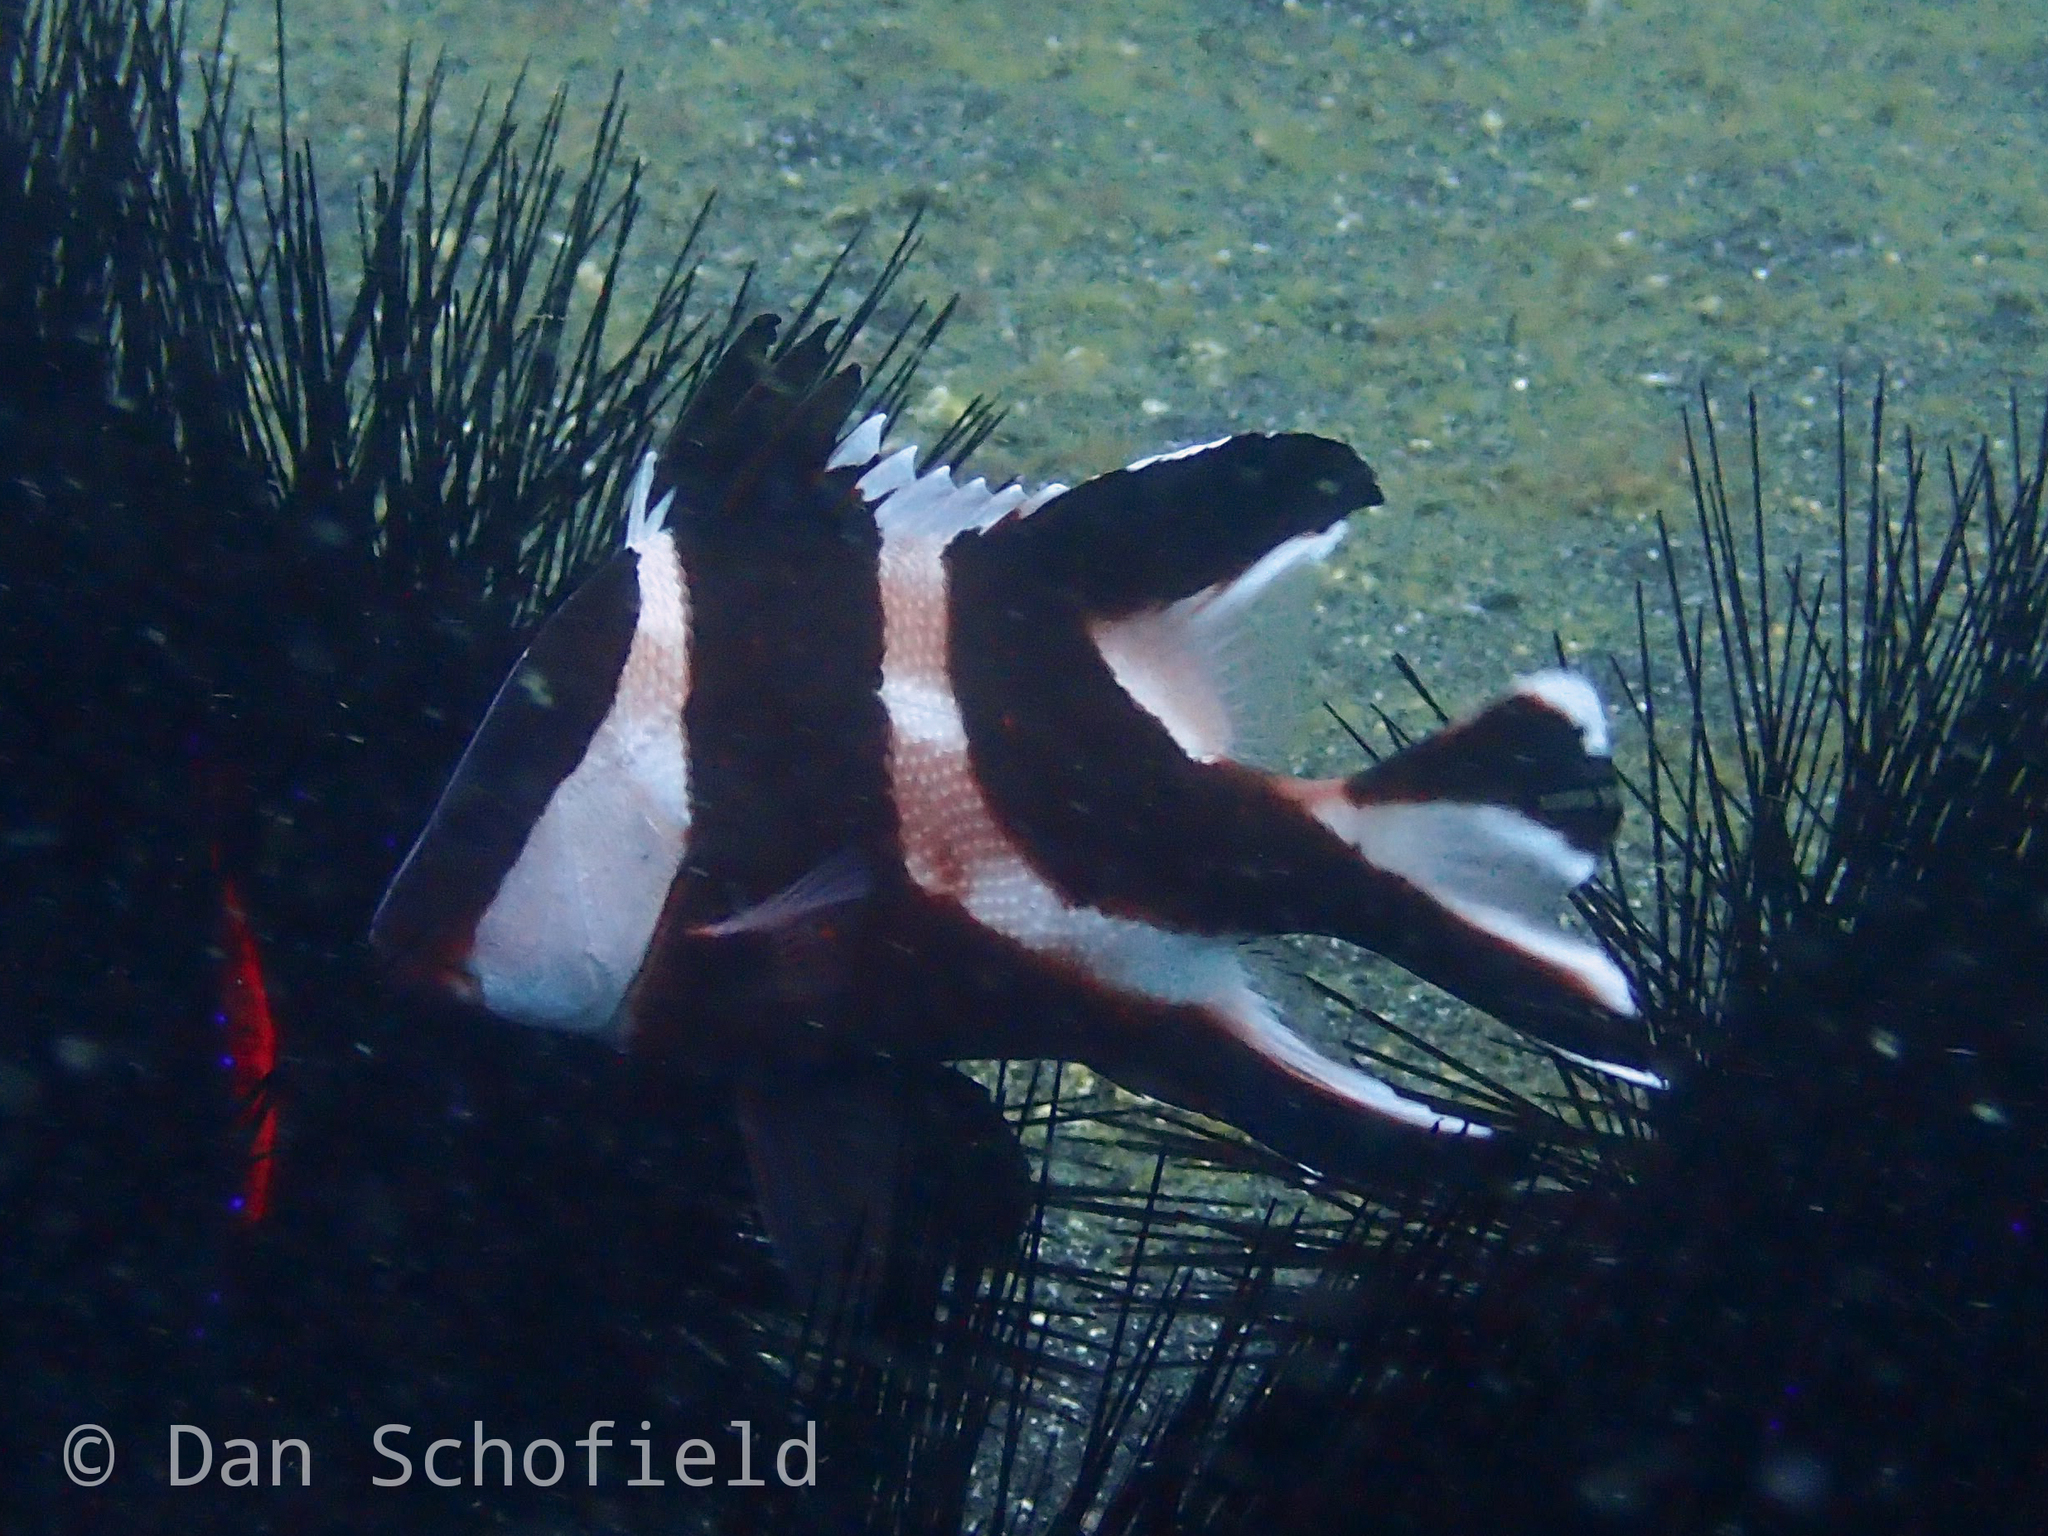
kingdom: Animalia
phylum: Chordata
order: Perciformes
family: Lutjanidae
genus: Lutjanus
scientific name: Lutjanus sebae
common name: Emperor red snapper
